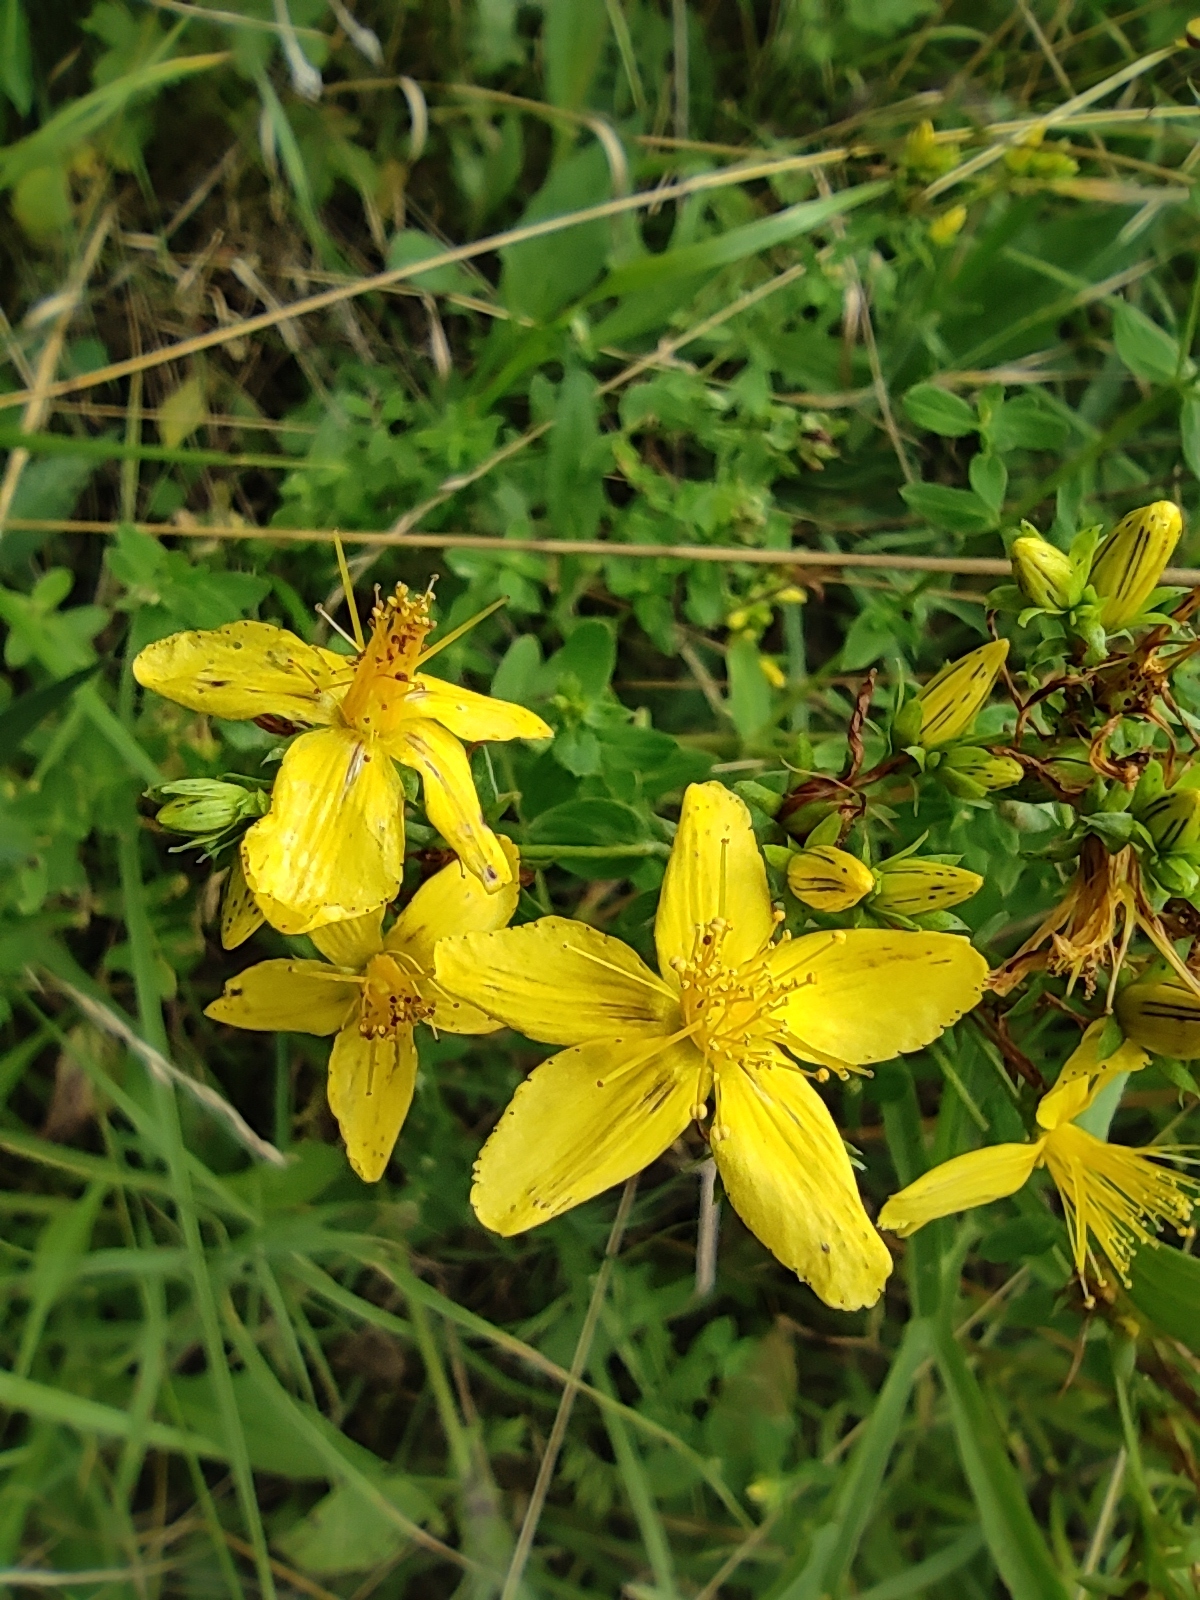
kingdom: Plantae
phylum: Tracheophyta
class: Magnoliopsida
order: Malpighiales
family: Hypericaceae
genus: Hypericum
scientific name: Hypericum perforatum
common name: Common st. johnswort
